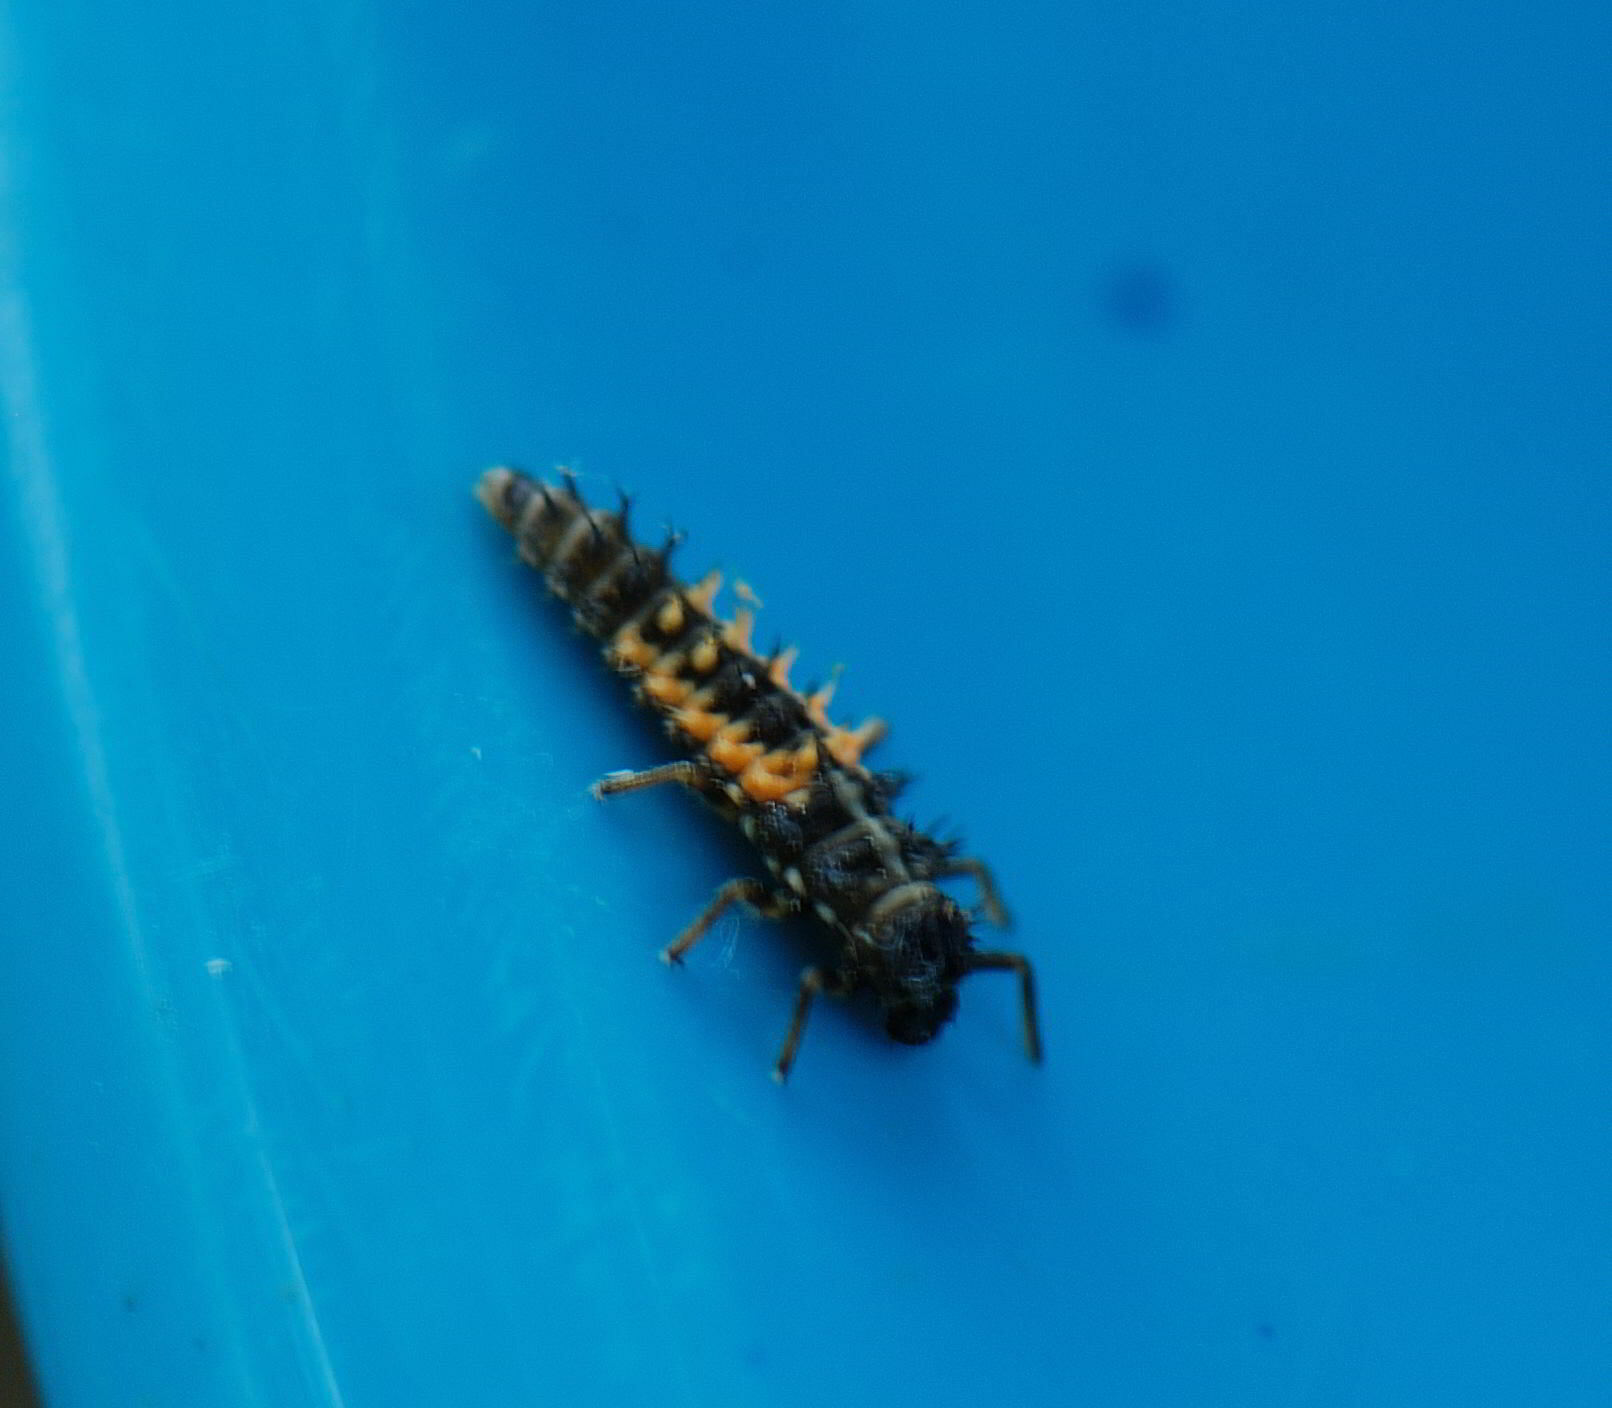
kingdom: Animalia
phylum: Arthropoda
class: Insecta
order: Coleoptera
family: Coccinellidae
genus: Harmonia
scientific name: Harmonia axyridis
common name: Harlequin ladybird
